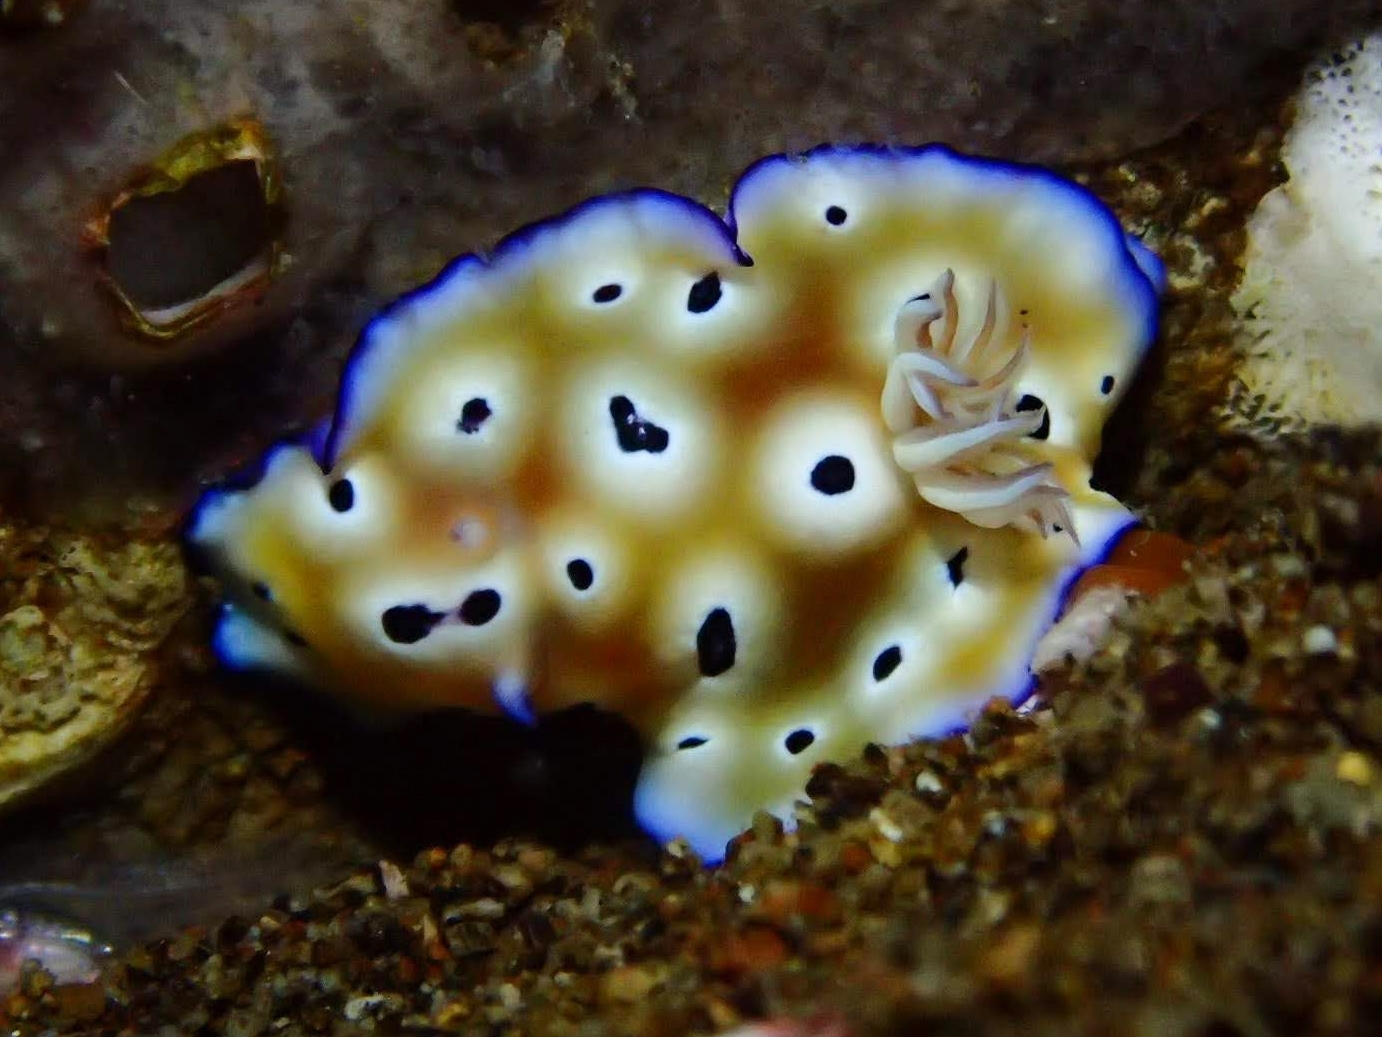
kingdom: Animalia
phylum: Mollusca
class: Gastropoda
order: Nudibranchia
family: Chromodorididae
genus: Goniobranchus
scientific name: Goniobranchus leopardus
